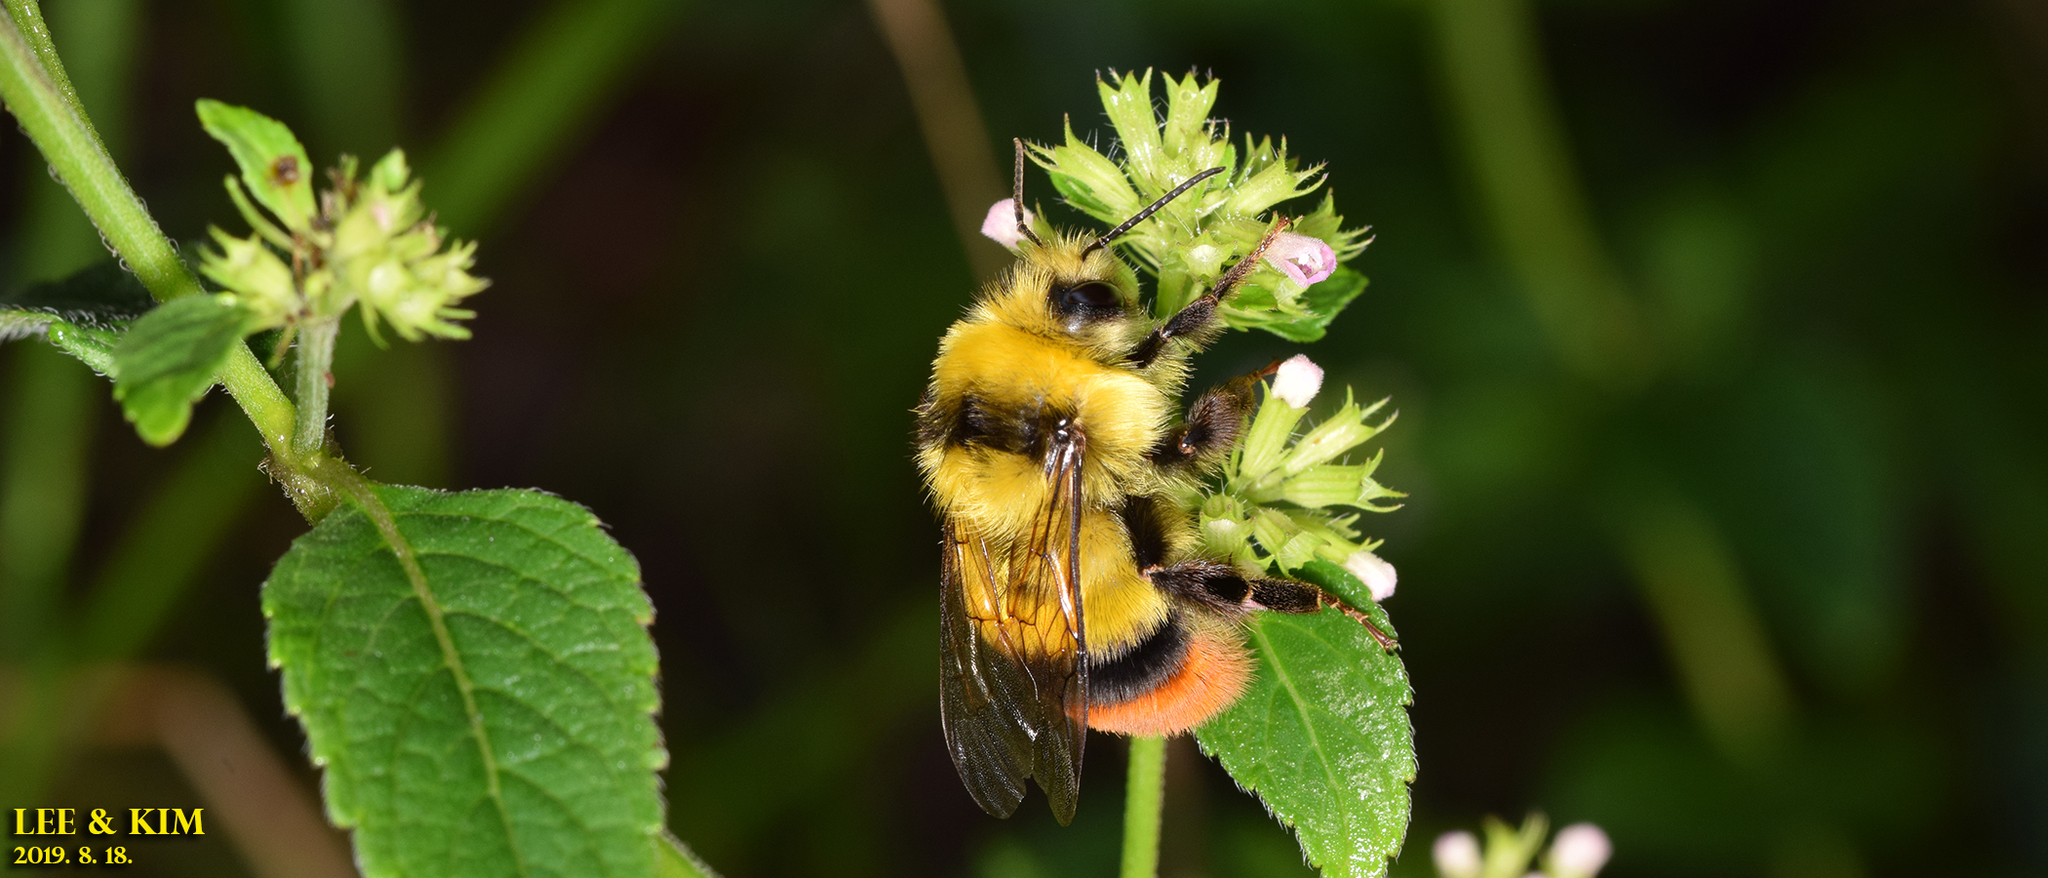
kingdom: Animalia
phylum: Arthropoda
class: Insecta
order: Hymenoptera
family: Apidae
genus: Bombus
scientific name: Bombus ignitus
